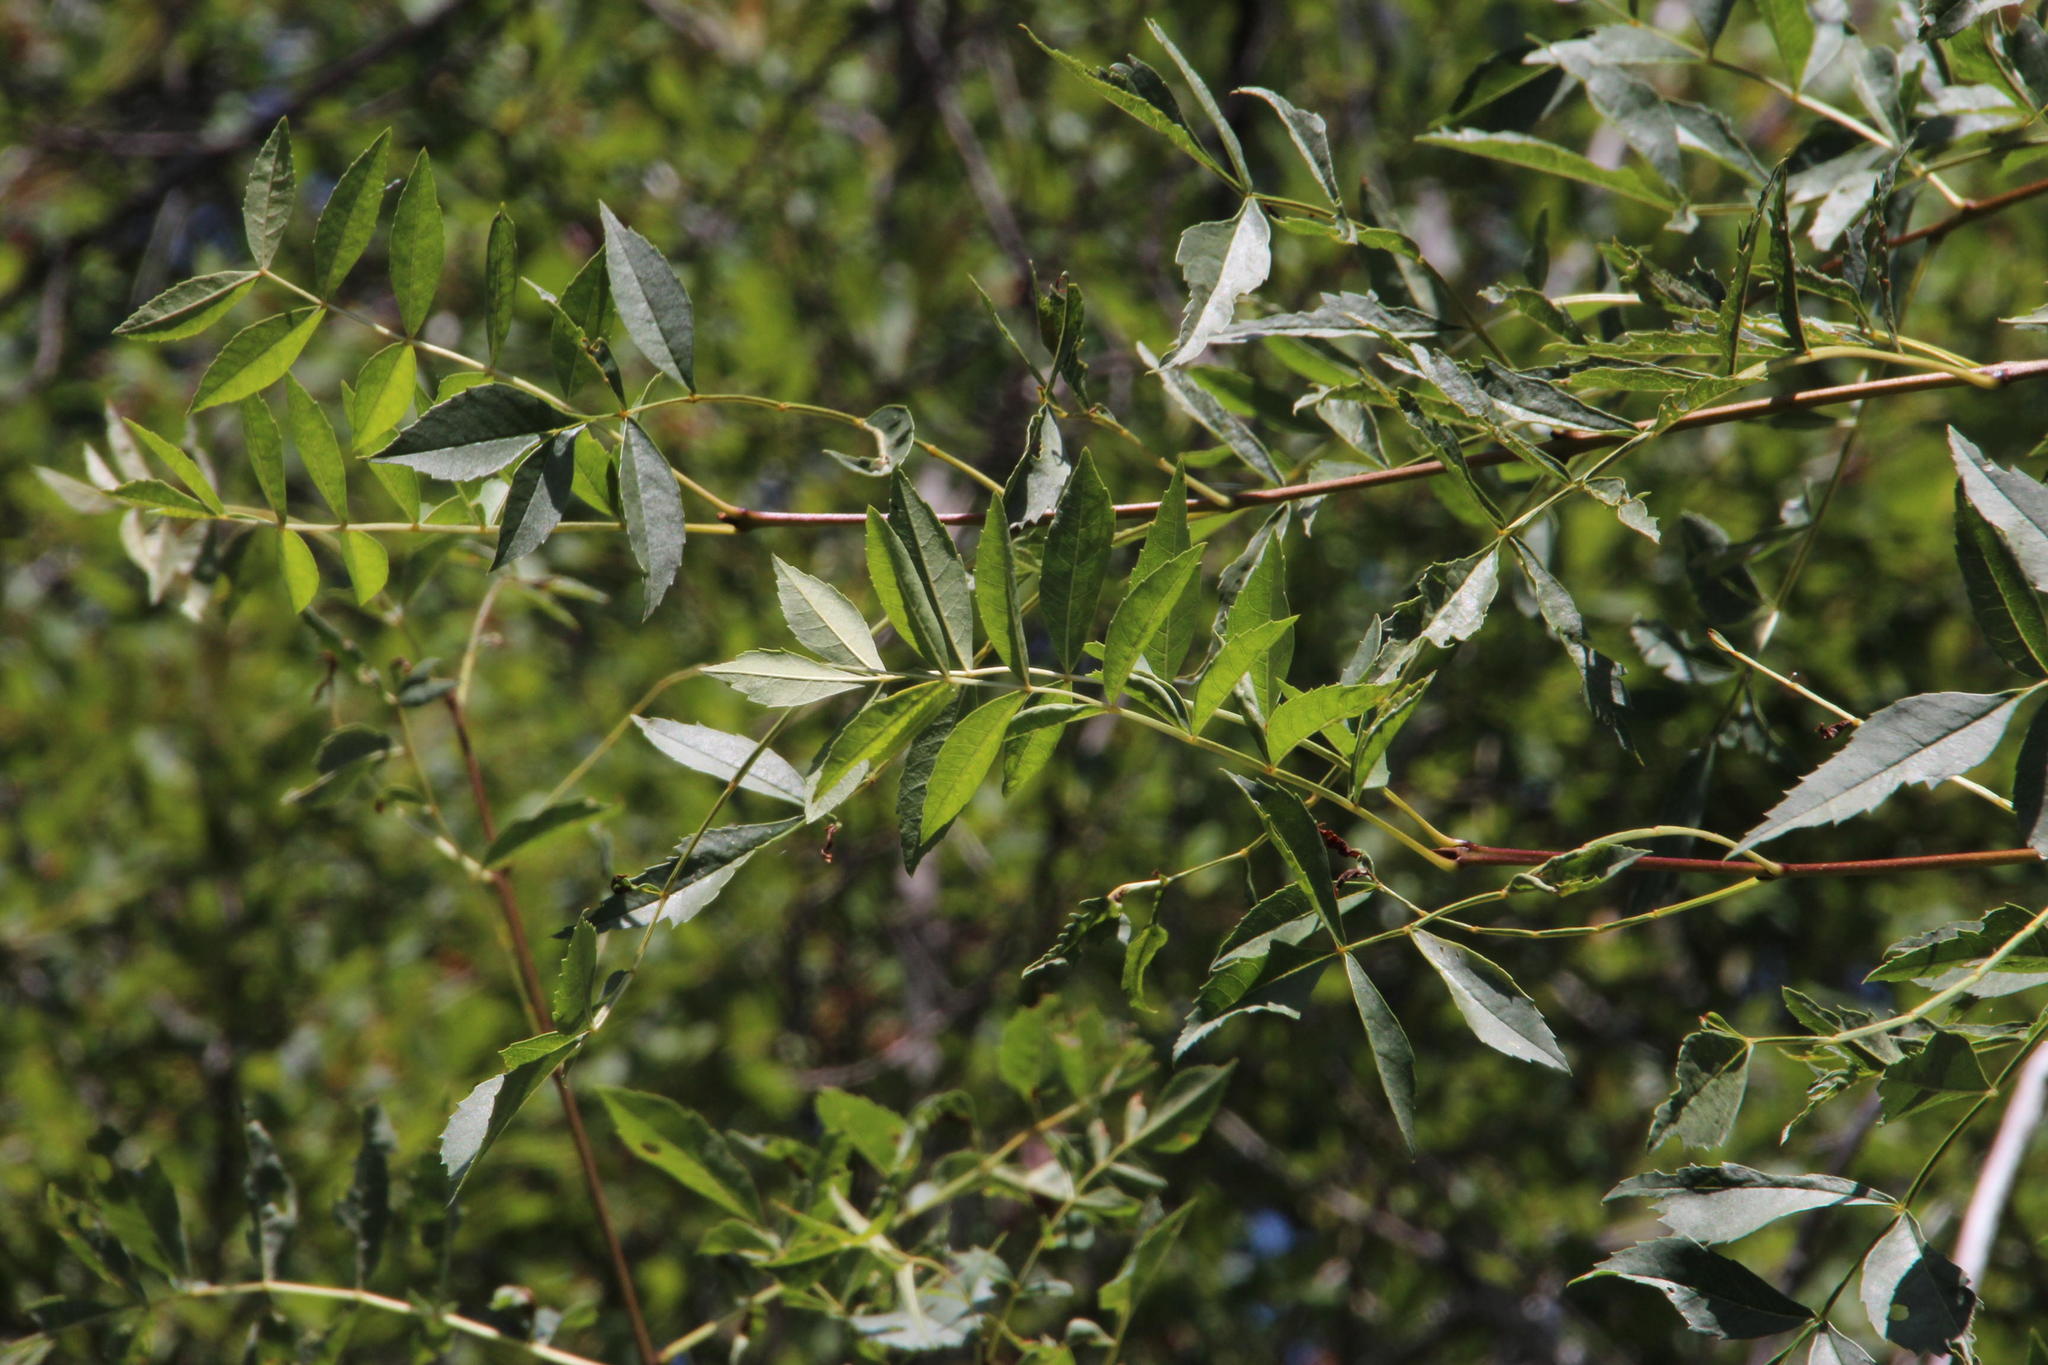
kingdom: Plantae
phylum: Tracheophyta
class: Magnoliopsida
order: Lamiales
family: Oleaceae
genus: Fraxinus
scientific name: Fraxinus angustifolia
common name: Narrow-leafed ash
